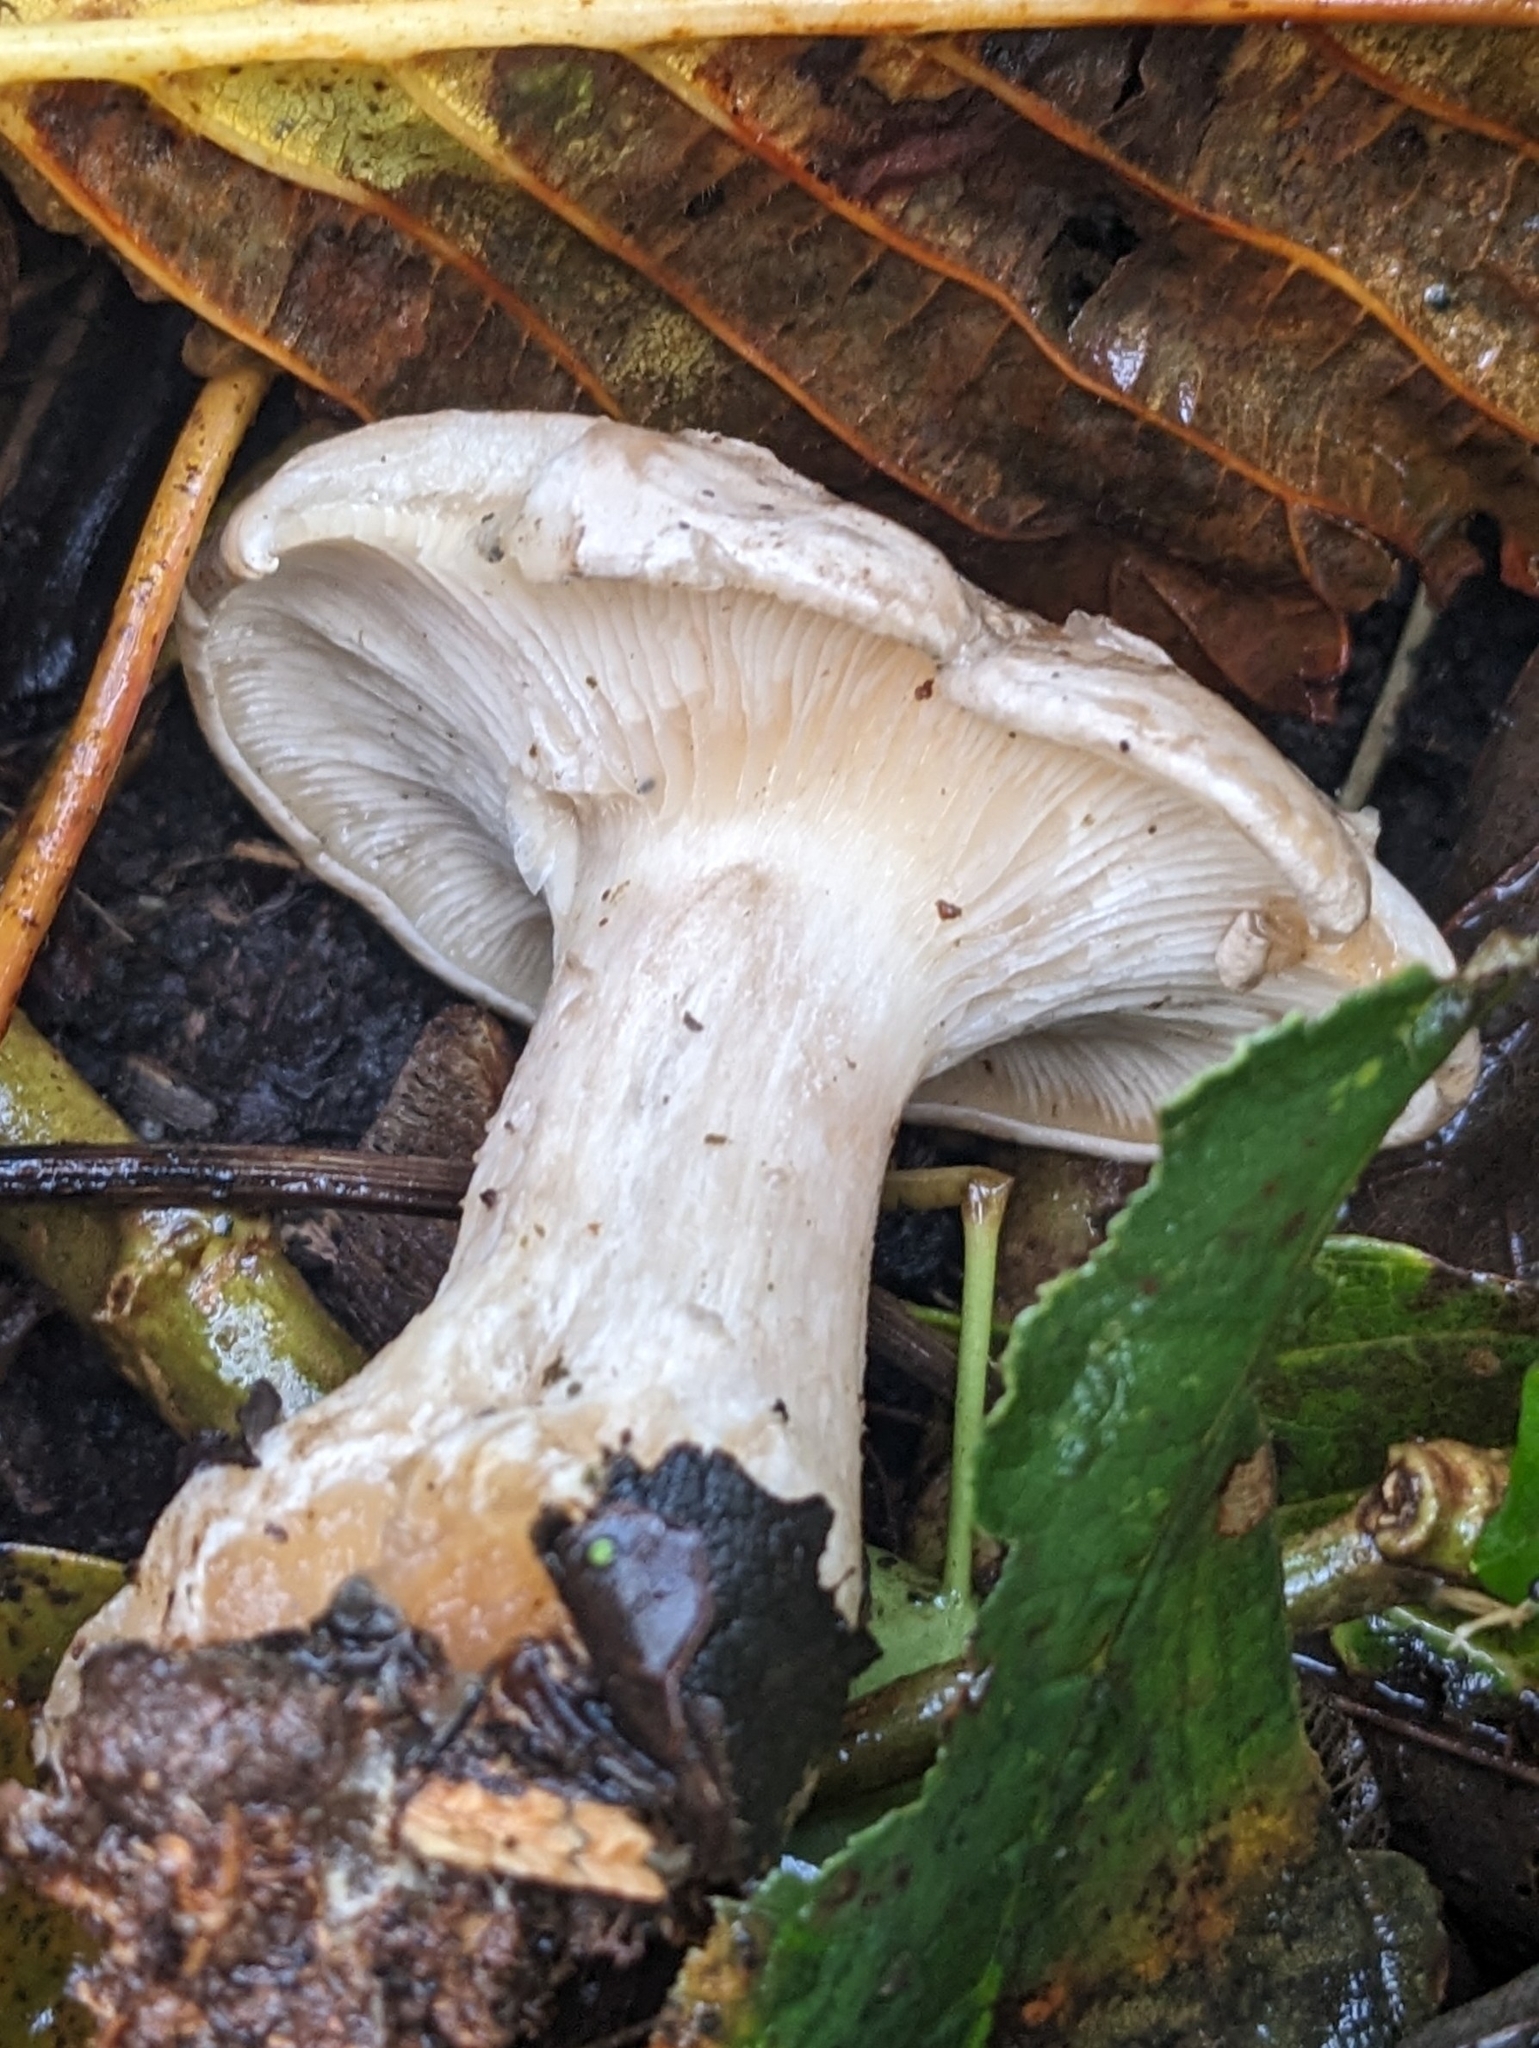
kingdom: Fungi
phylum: Basidiomycota
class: Agaricomycetes
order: Agaricales
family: Tricholomataceae
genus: Clitocybe
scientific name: Clitocybe nebularis
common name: Clouded agaric
